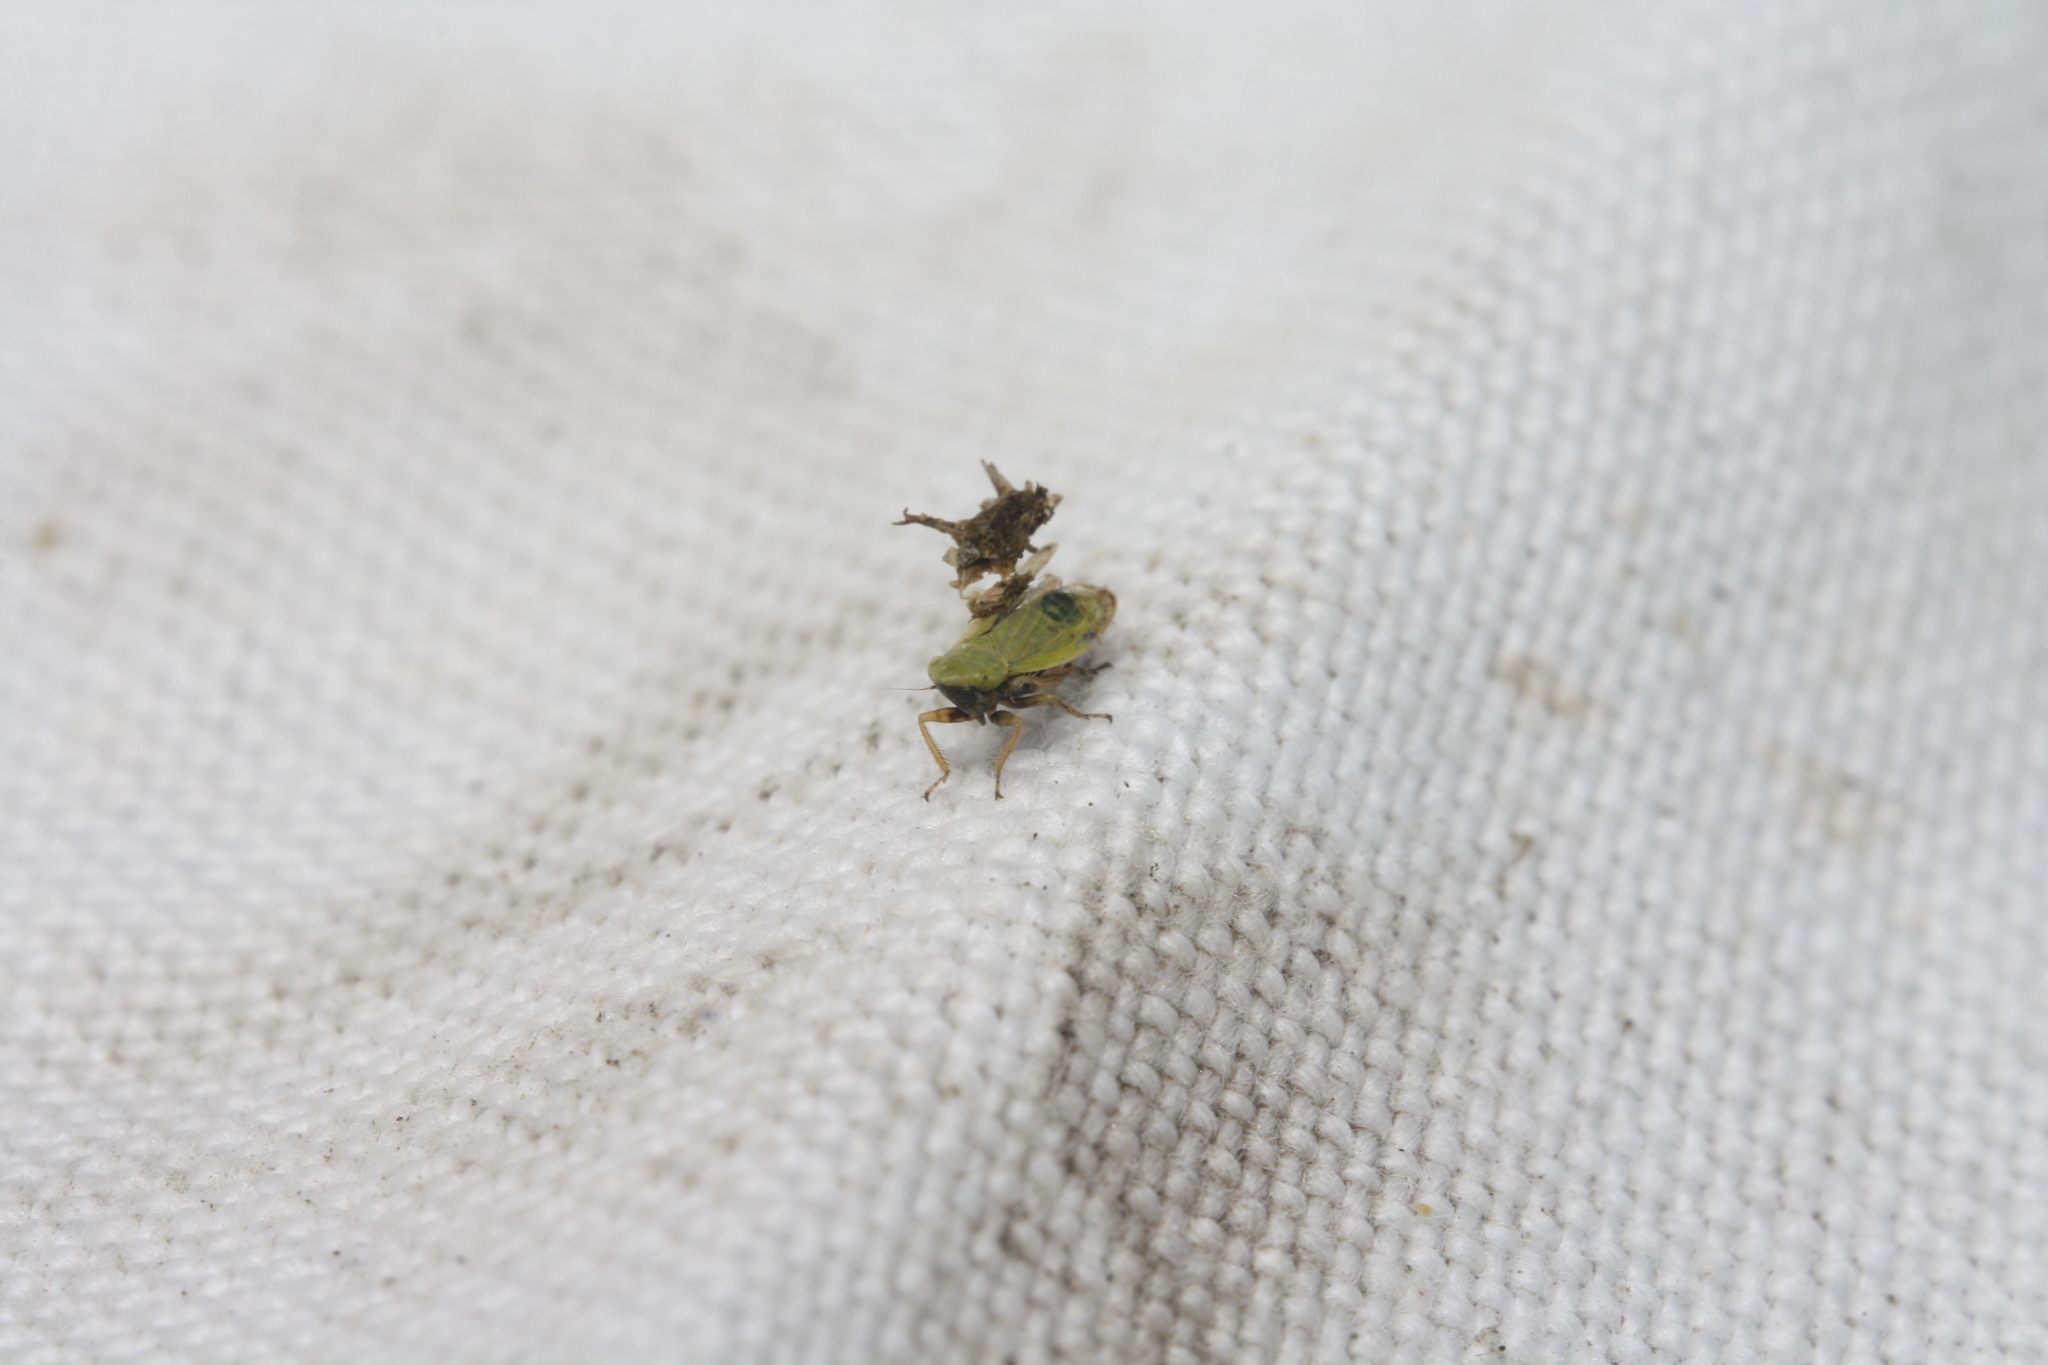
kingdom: Animalia
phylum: Arthropoda
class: Insecta
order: Hemiptera
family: Cicadellidae
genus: Diplocolenus
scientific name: Diplocolenus abdominalis
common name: Leafhopper
